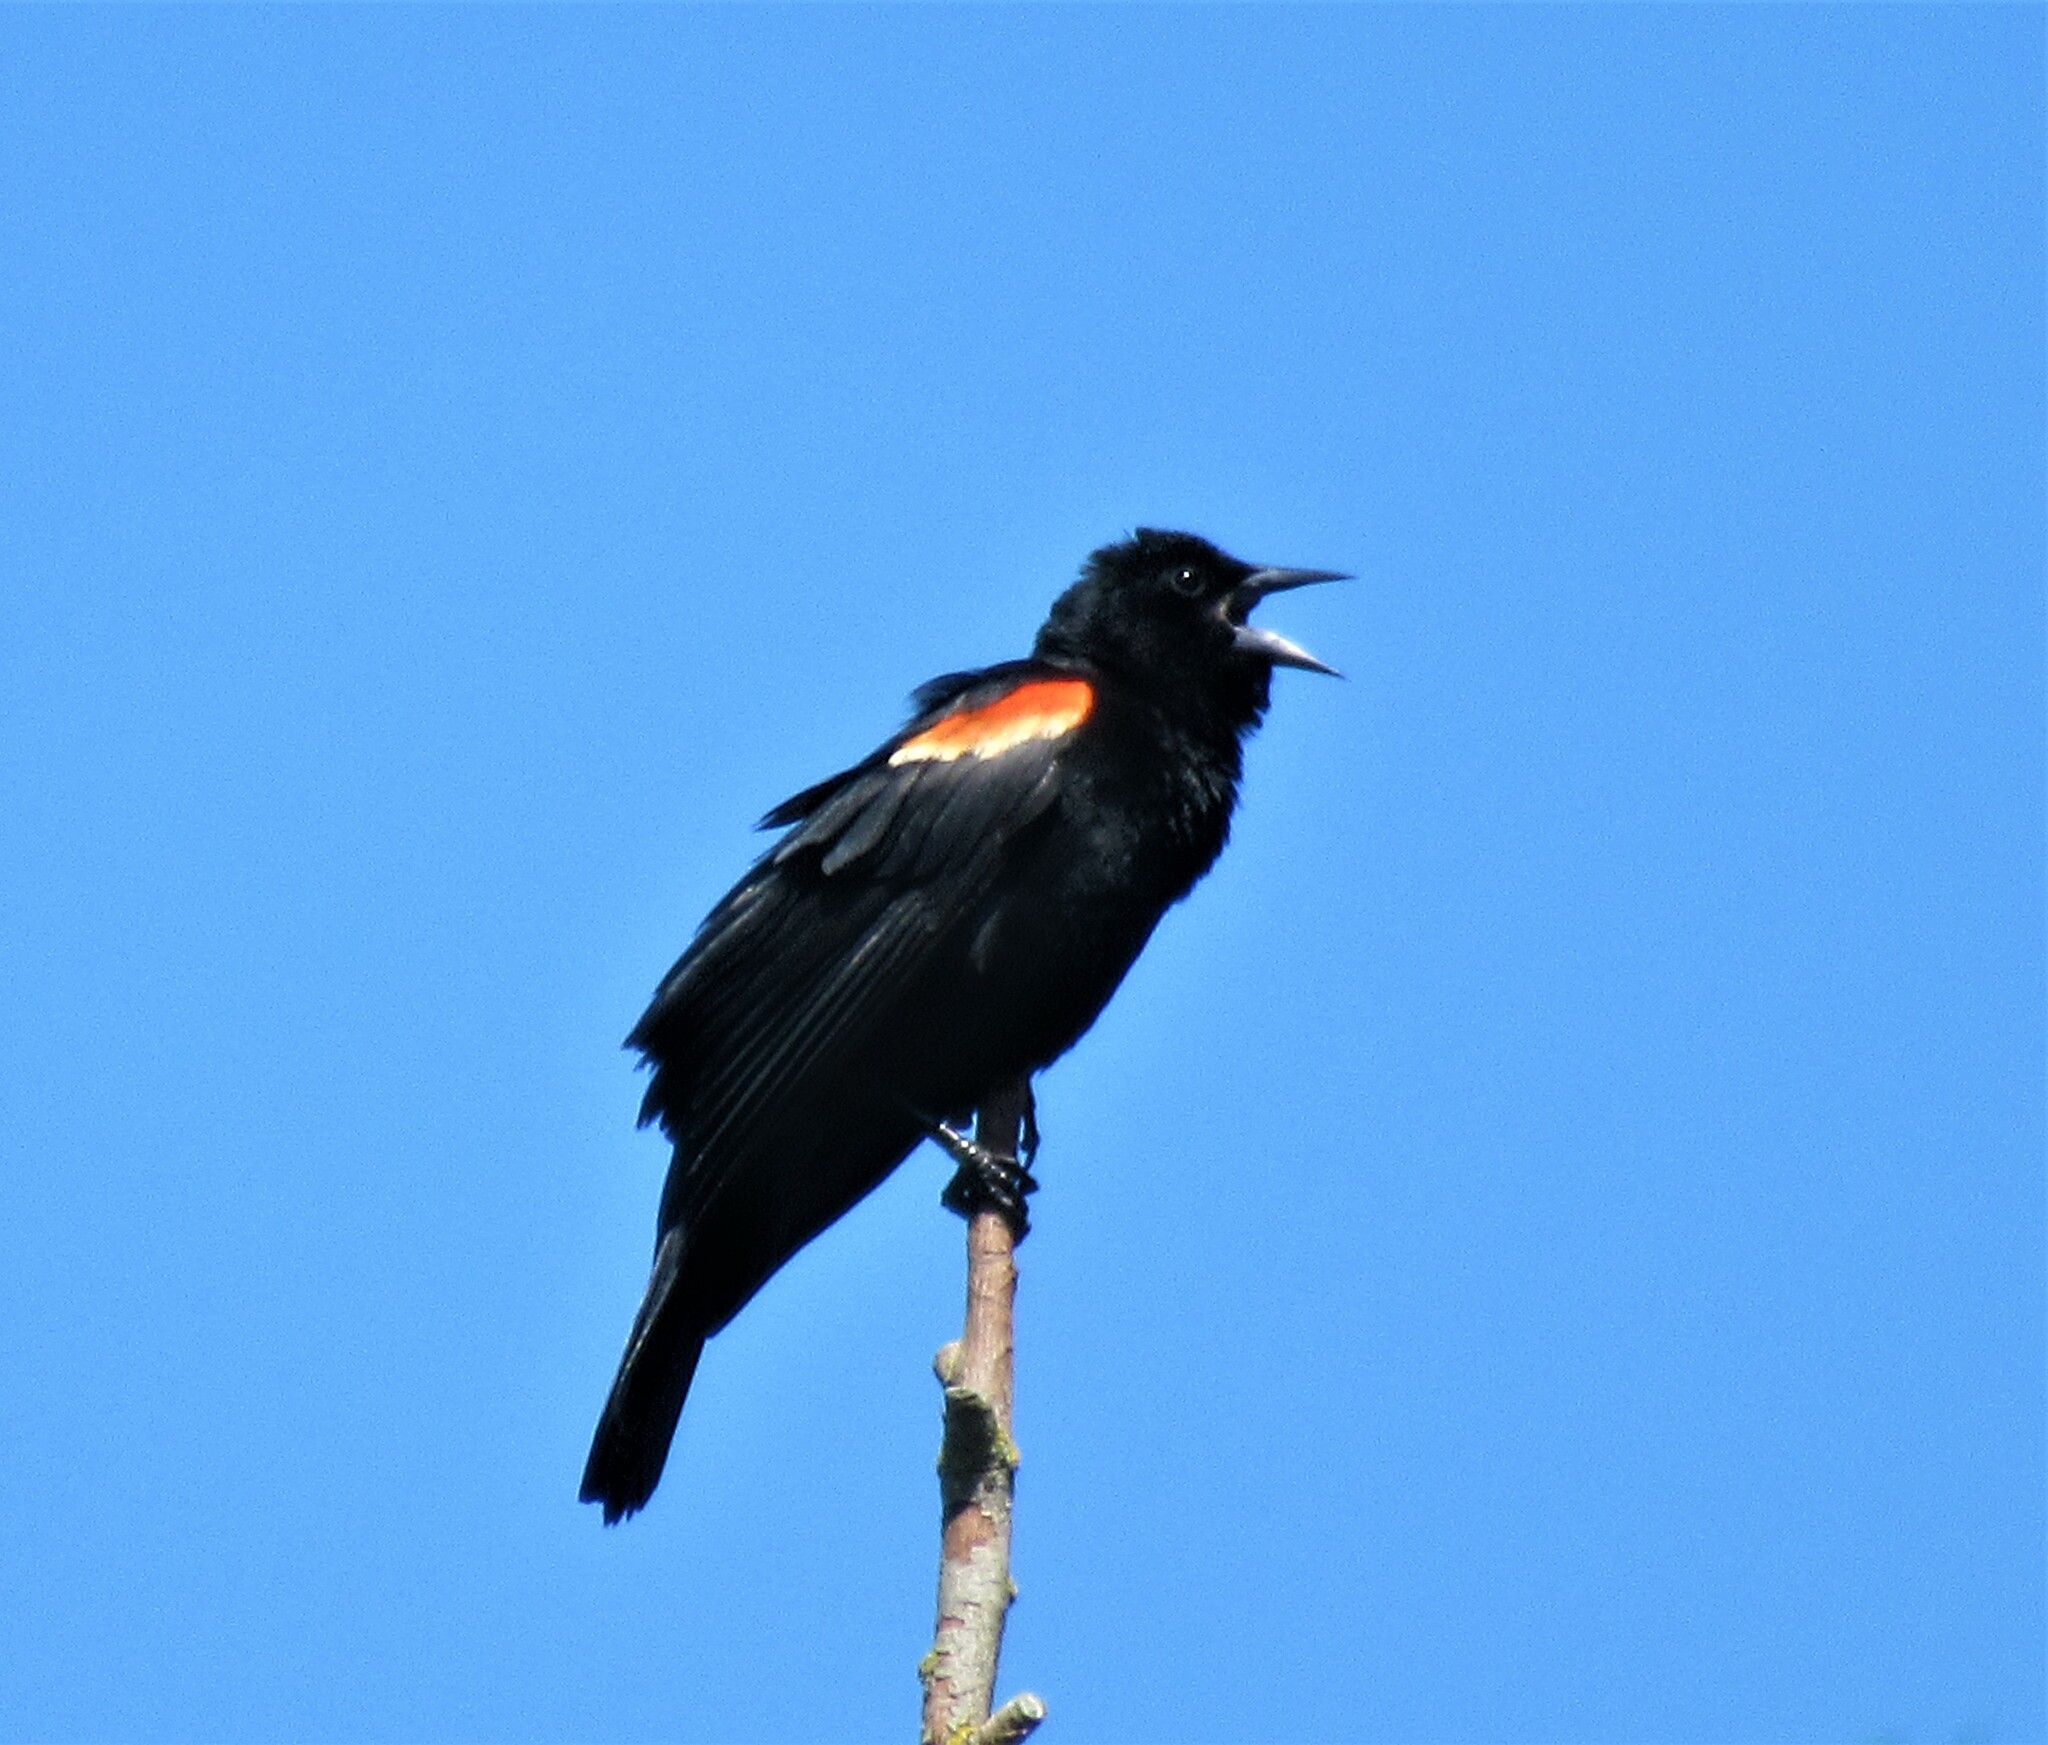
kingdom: Animalia
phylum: Chordata
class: Aves
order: Passeriformes
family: Icteridae
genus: Agelaius
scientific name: Agelaius phoeniceus
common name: Red-winged blackbird
